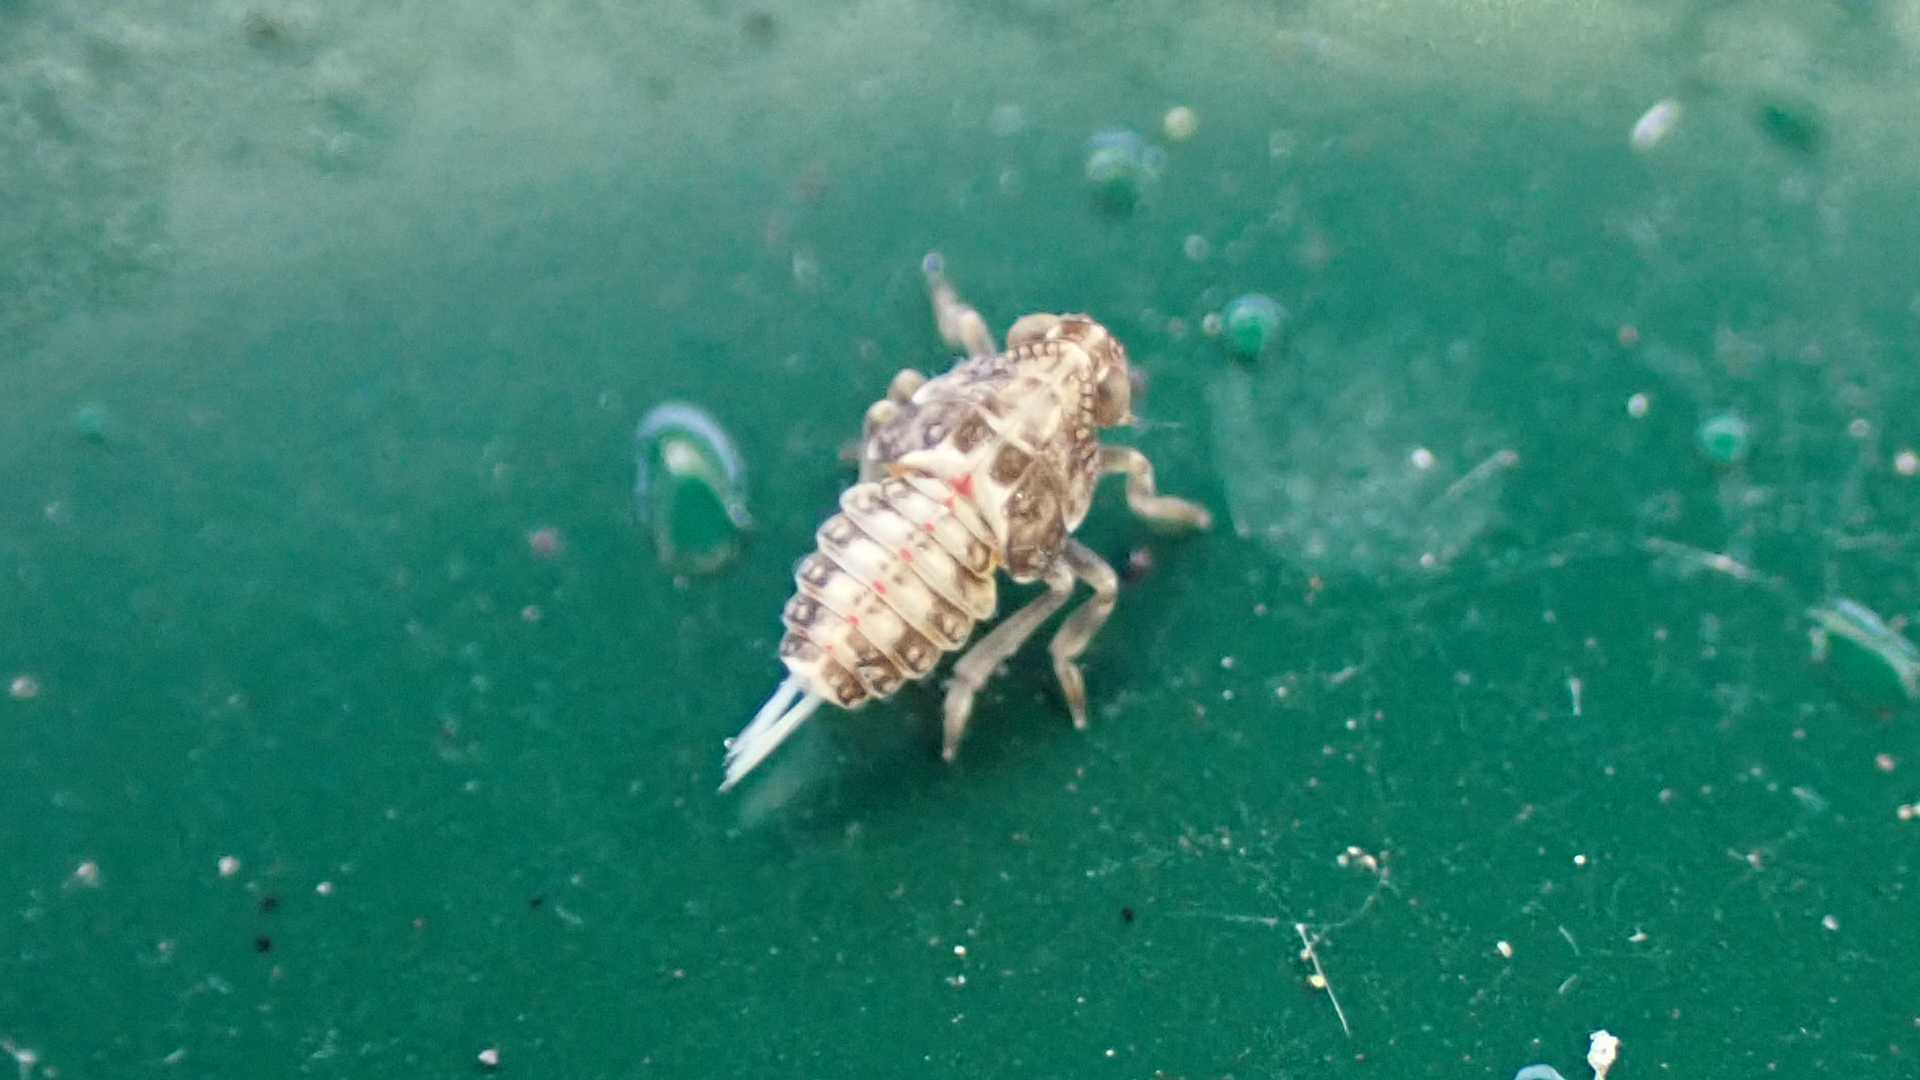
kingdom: Animalia
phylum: Arthropoda
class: Insecta
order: Hemiptera
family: Issidae
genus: Issus
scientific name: Issus
